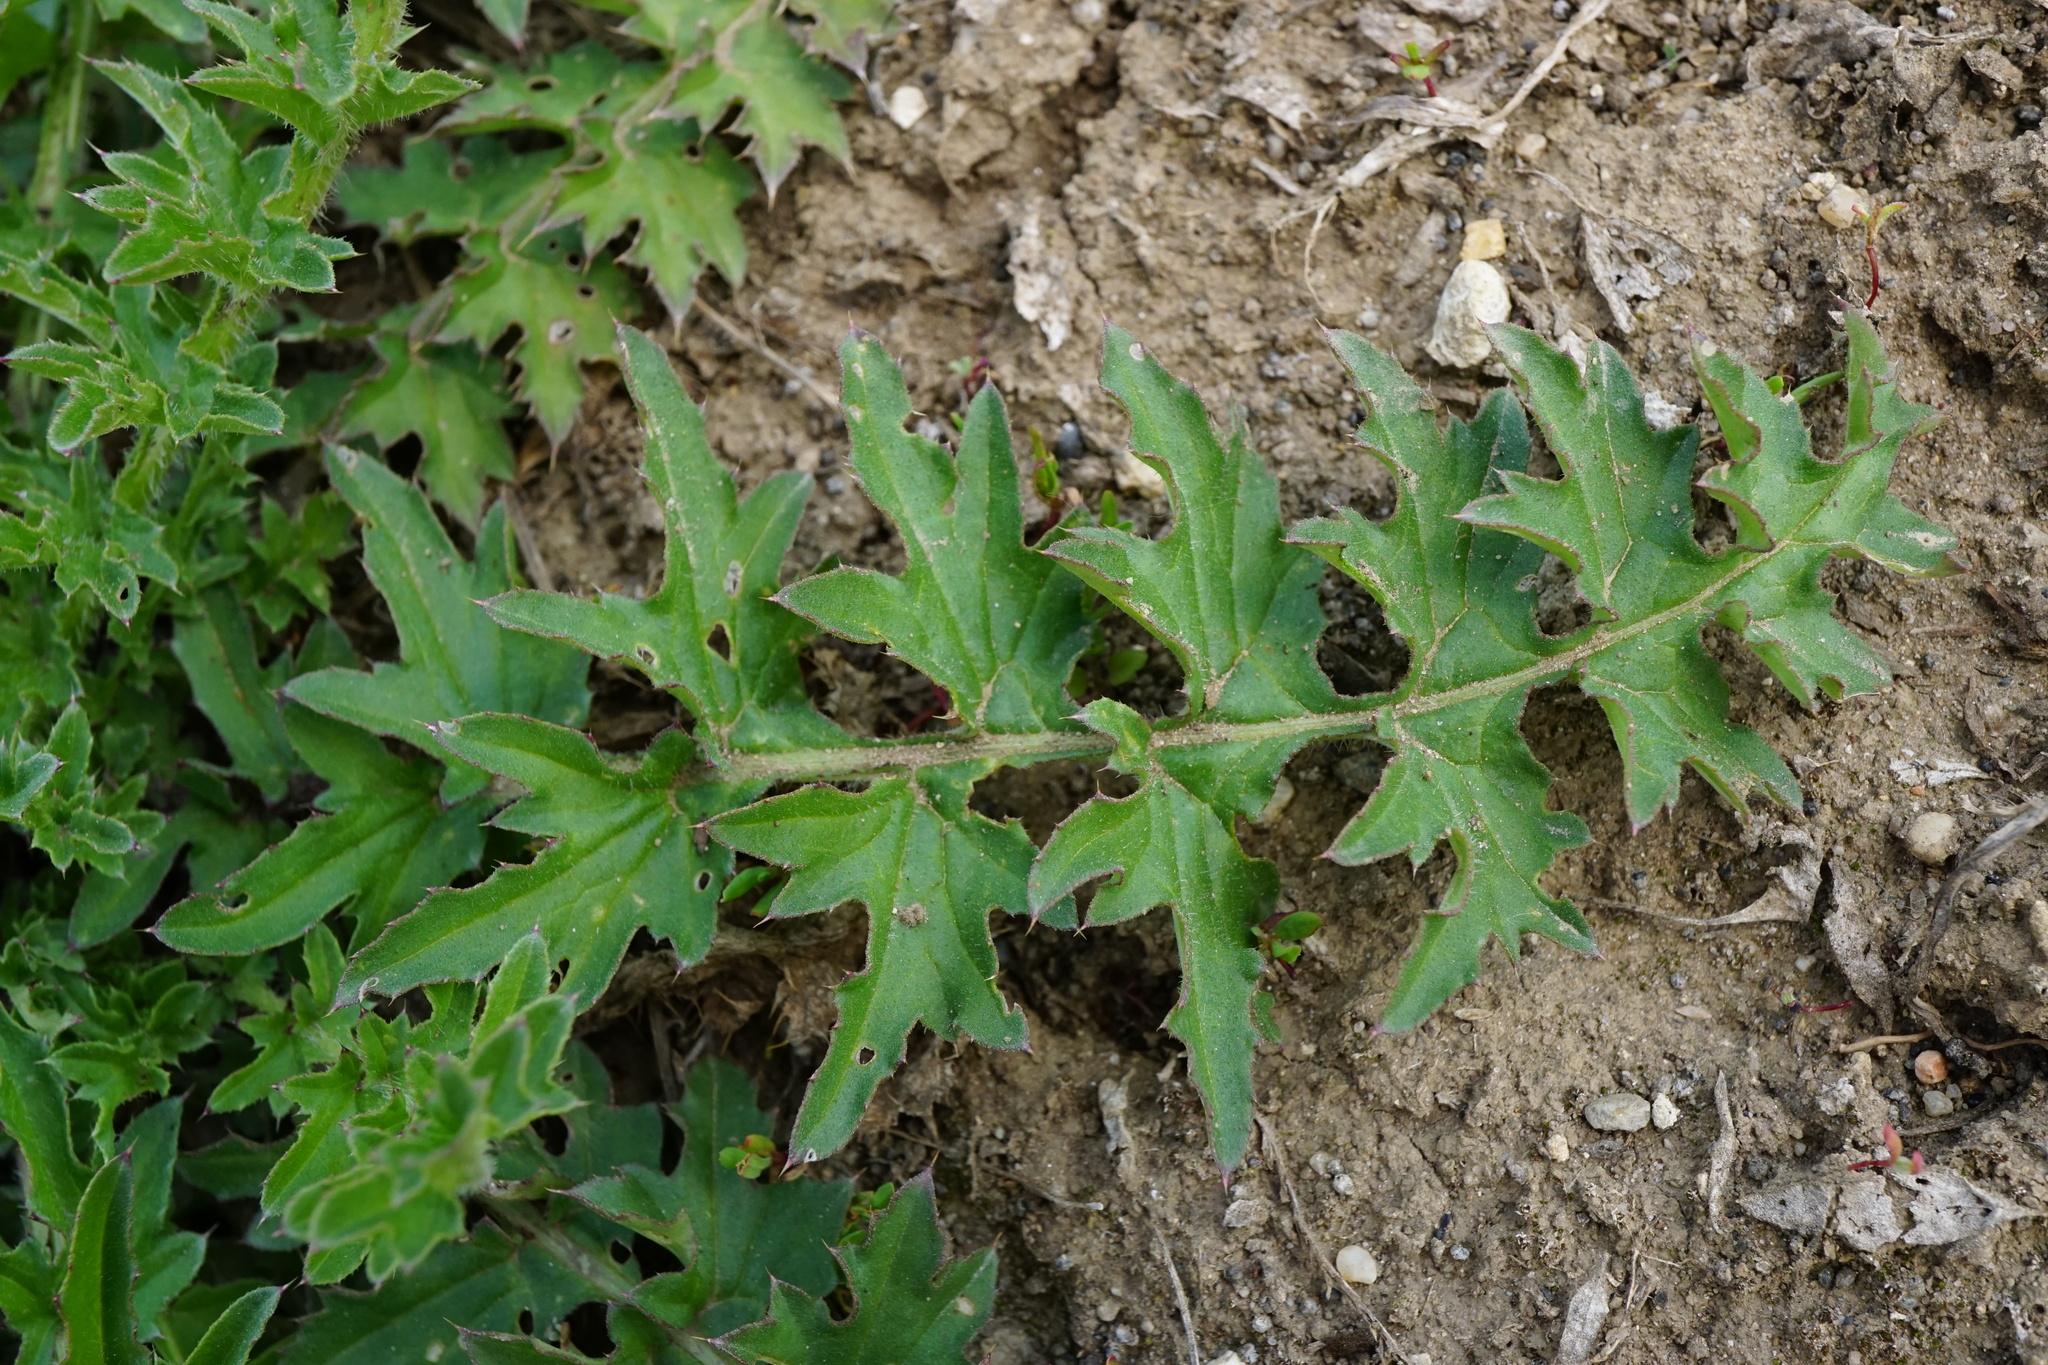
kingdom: Plantae
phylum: Tracheophyta
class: Magnoliopsida
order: Asterales
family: Asteraceae
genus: Carduus
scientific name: Carduus acanthoides
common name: Plumeless thistle
